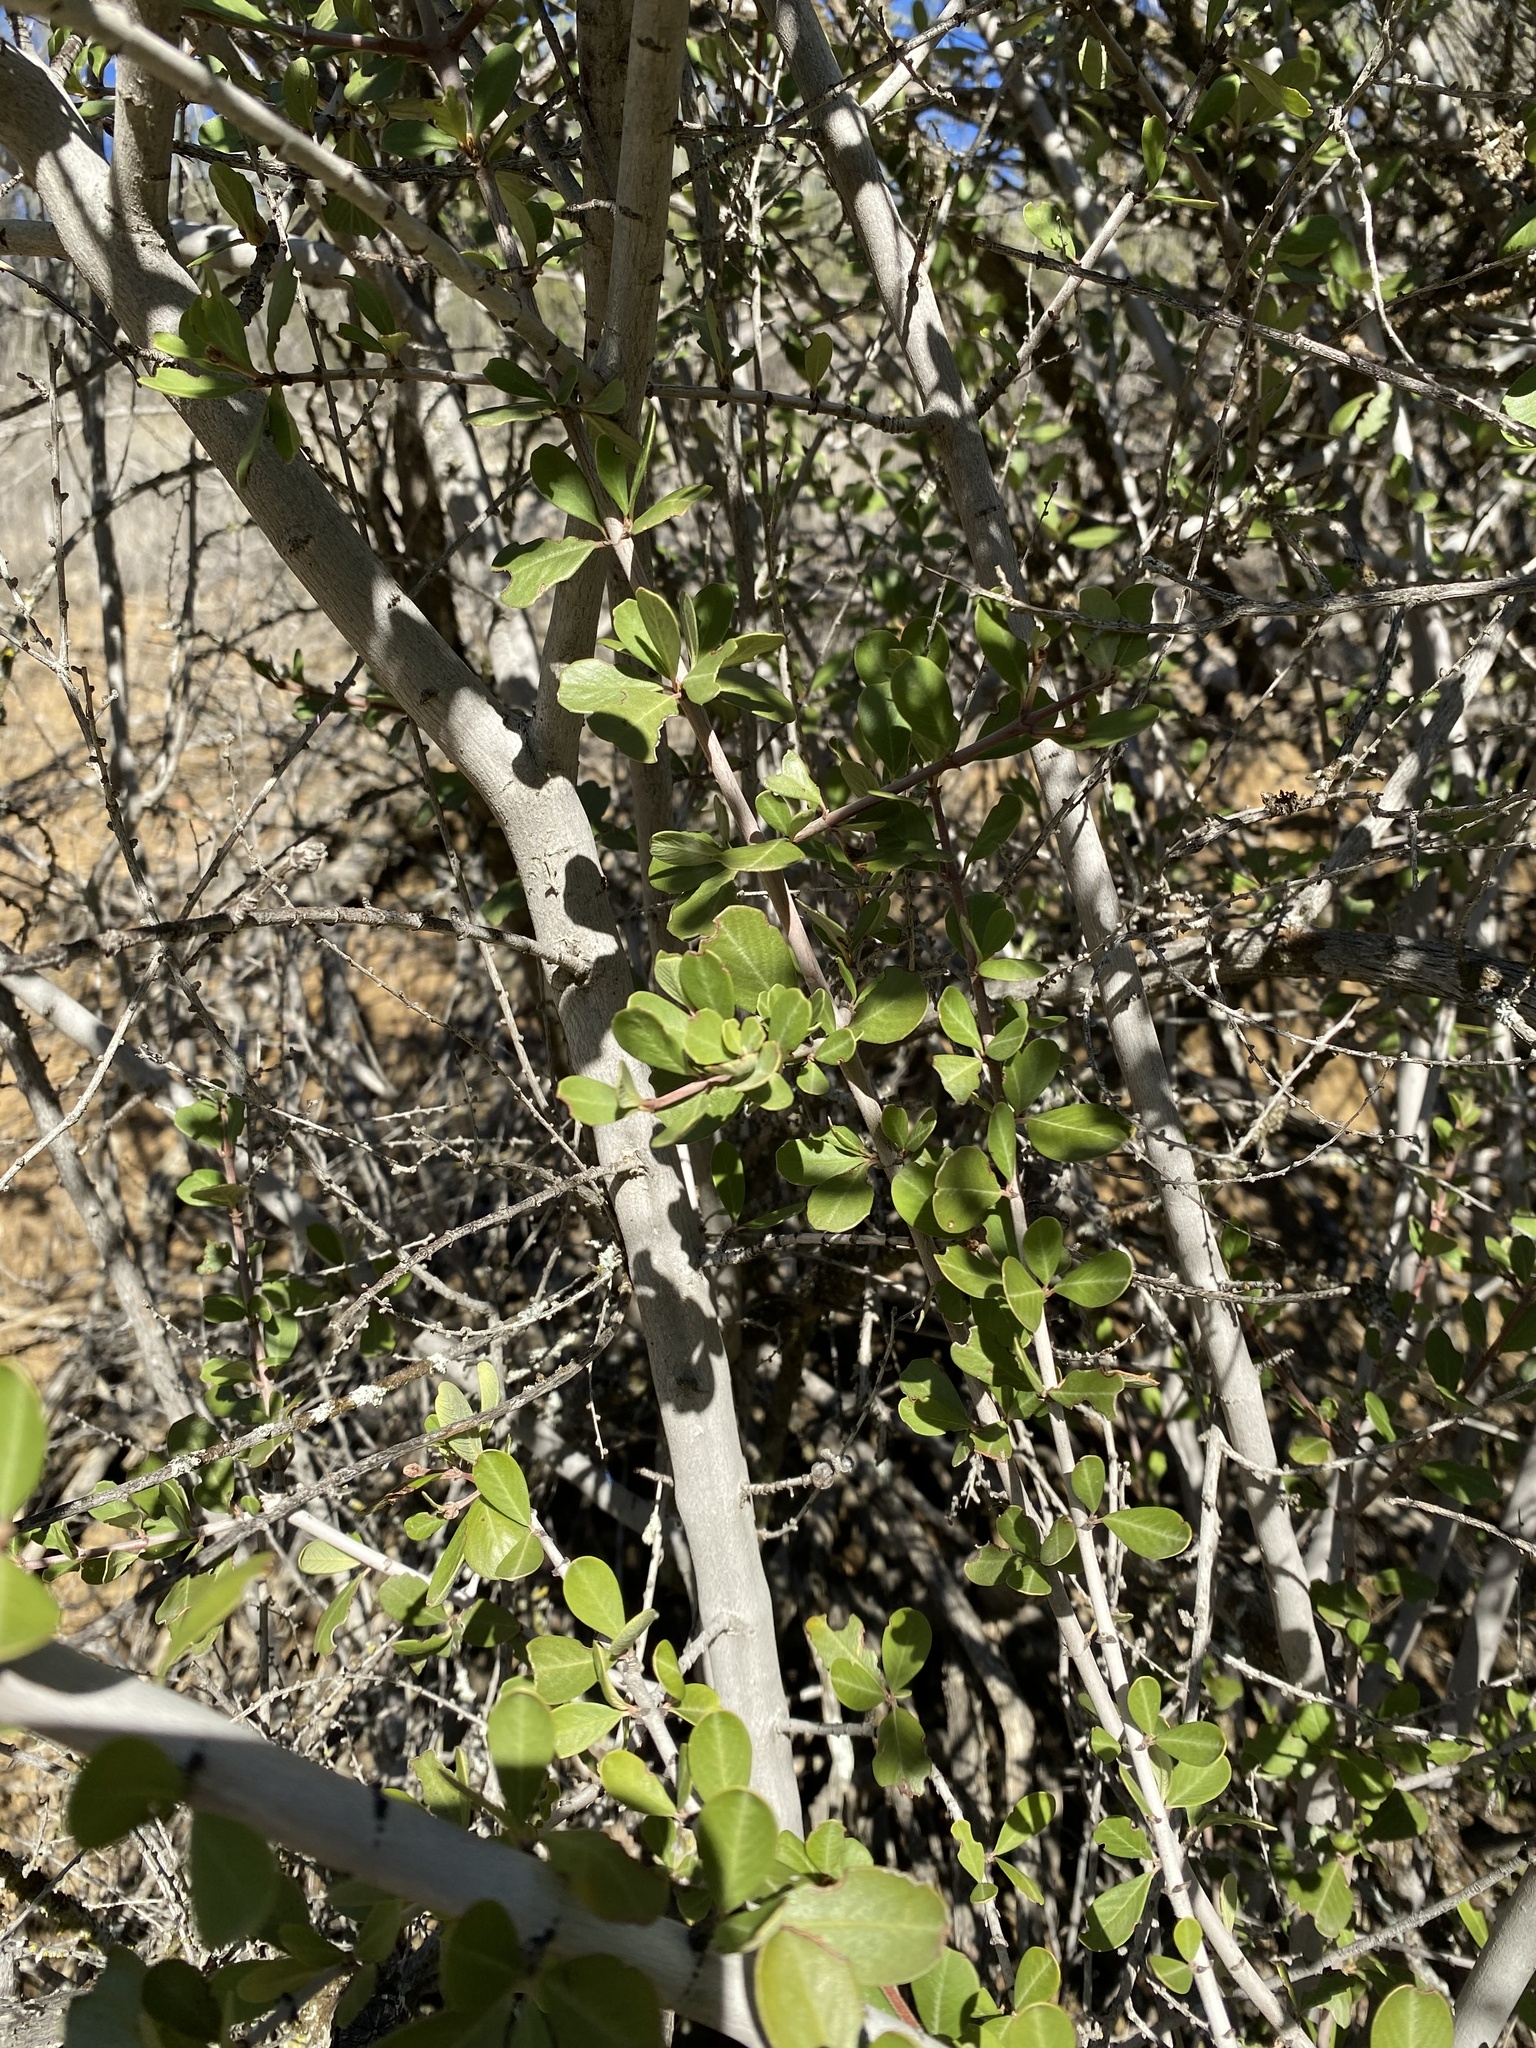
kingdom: Plantae
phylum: Tracheophyta
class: Magnoliopsida
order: Rosales
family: Rhamnaceae
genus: Ceanothus
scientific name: Ceanothus cuneatus
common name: Cuneate ceanothus
